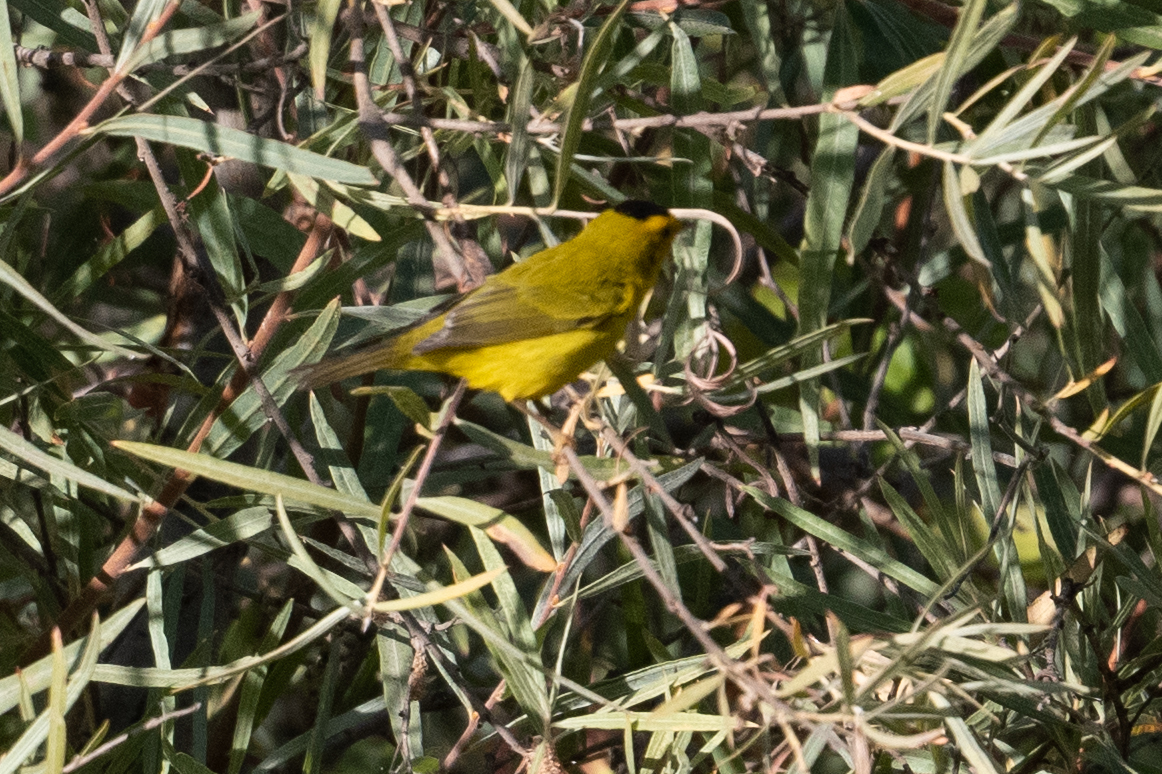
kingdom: Animalia
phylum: Chordata
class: Aves
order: Passeriformes
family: Parulidae
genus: Cardellina
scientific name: Cardellina pusilla
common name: Wilson's warbler
